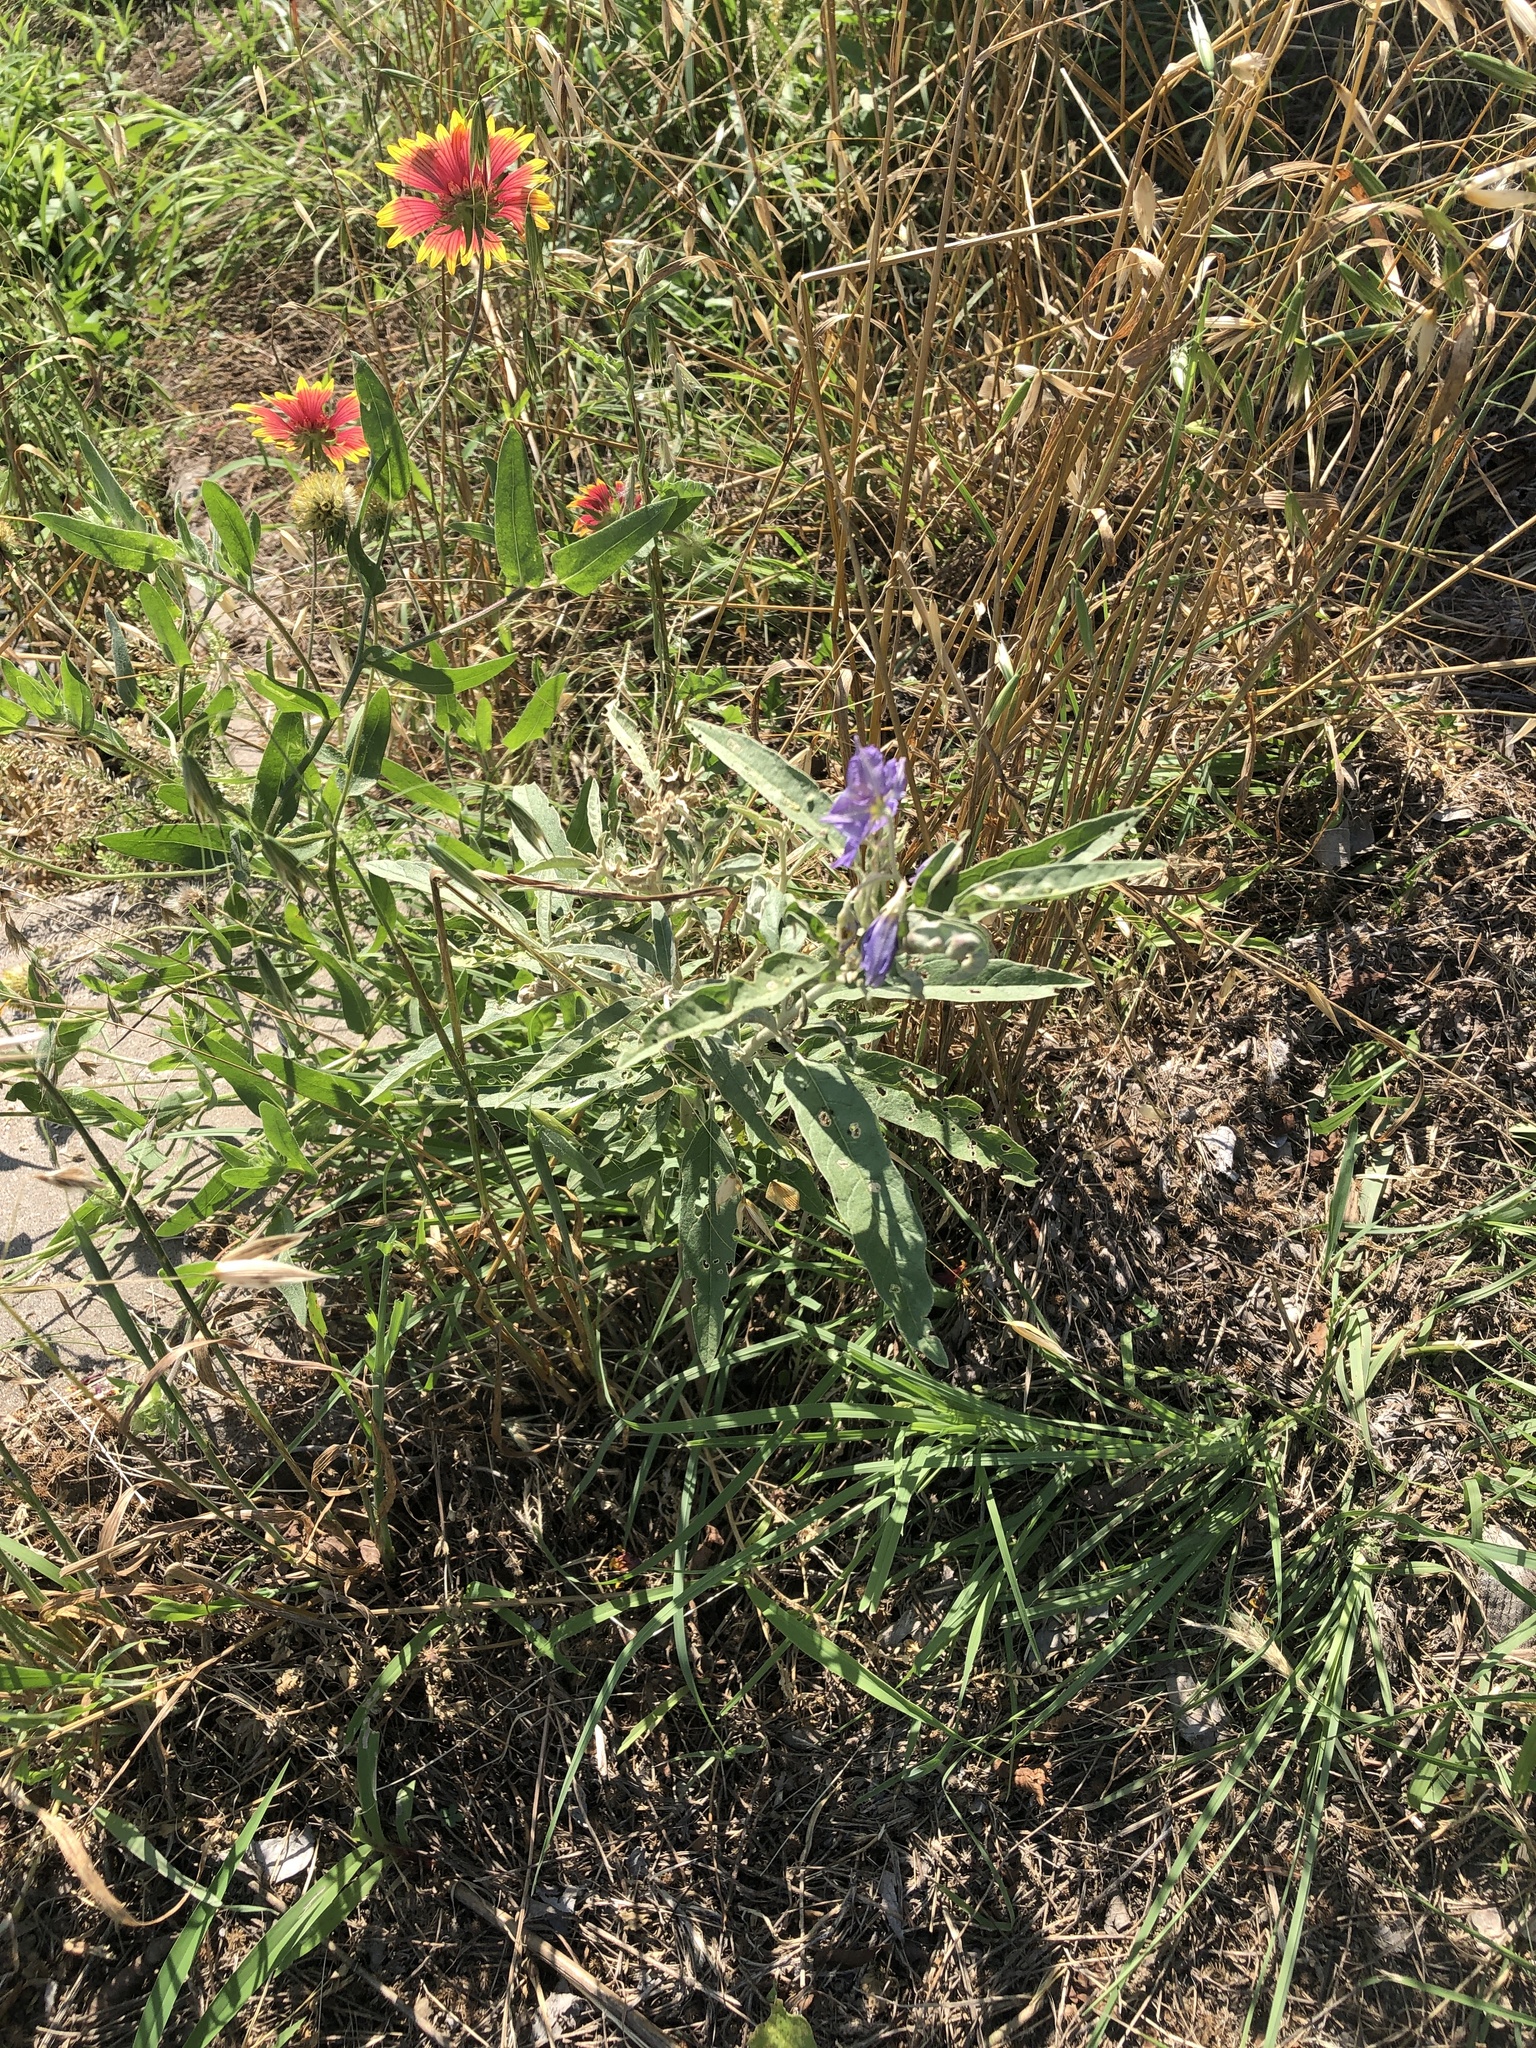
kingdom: Plantae
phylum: Tracheophyta
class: Magnoliopsida
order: Solanales
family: Solanaceae
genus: Solanum
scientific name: Solanum elaeagnifolium
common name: Silverleaf nightshade
